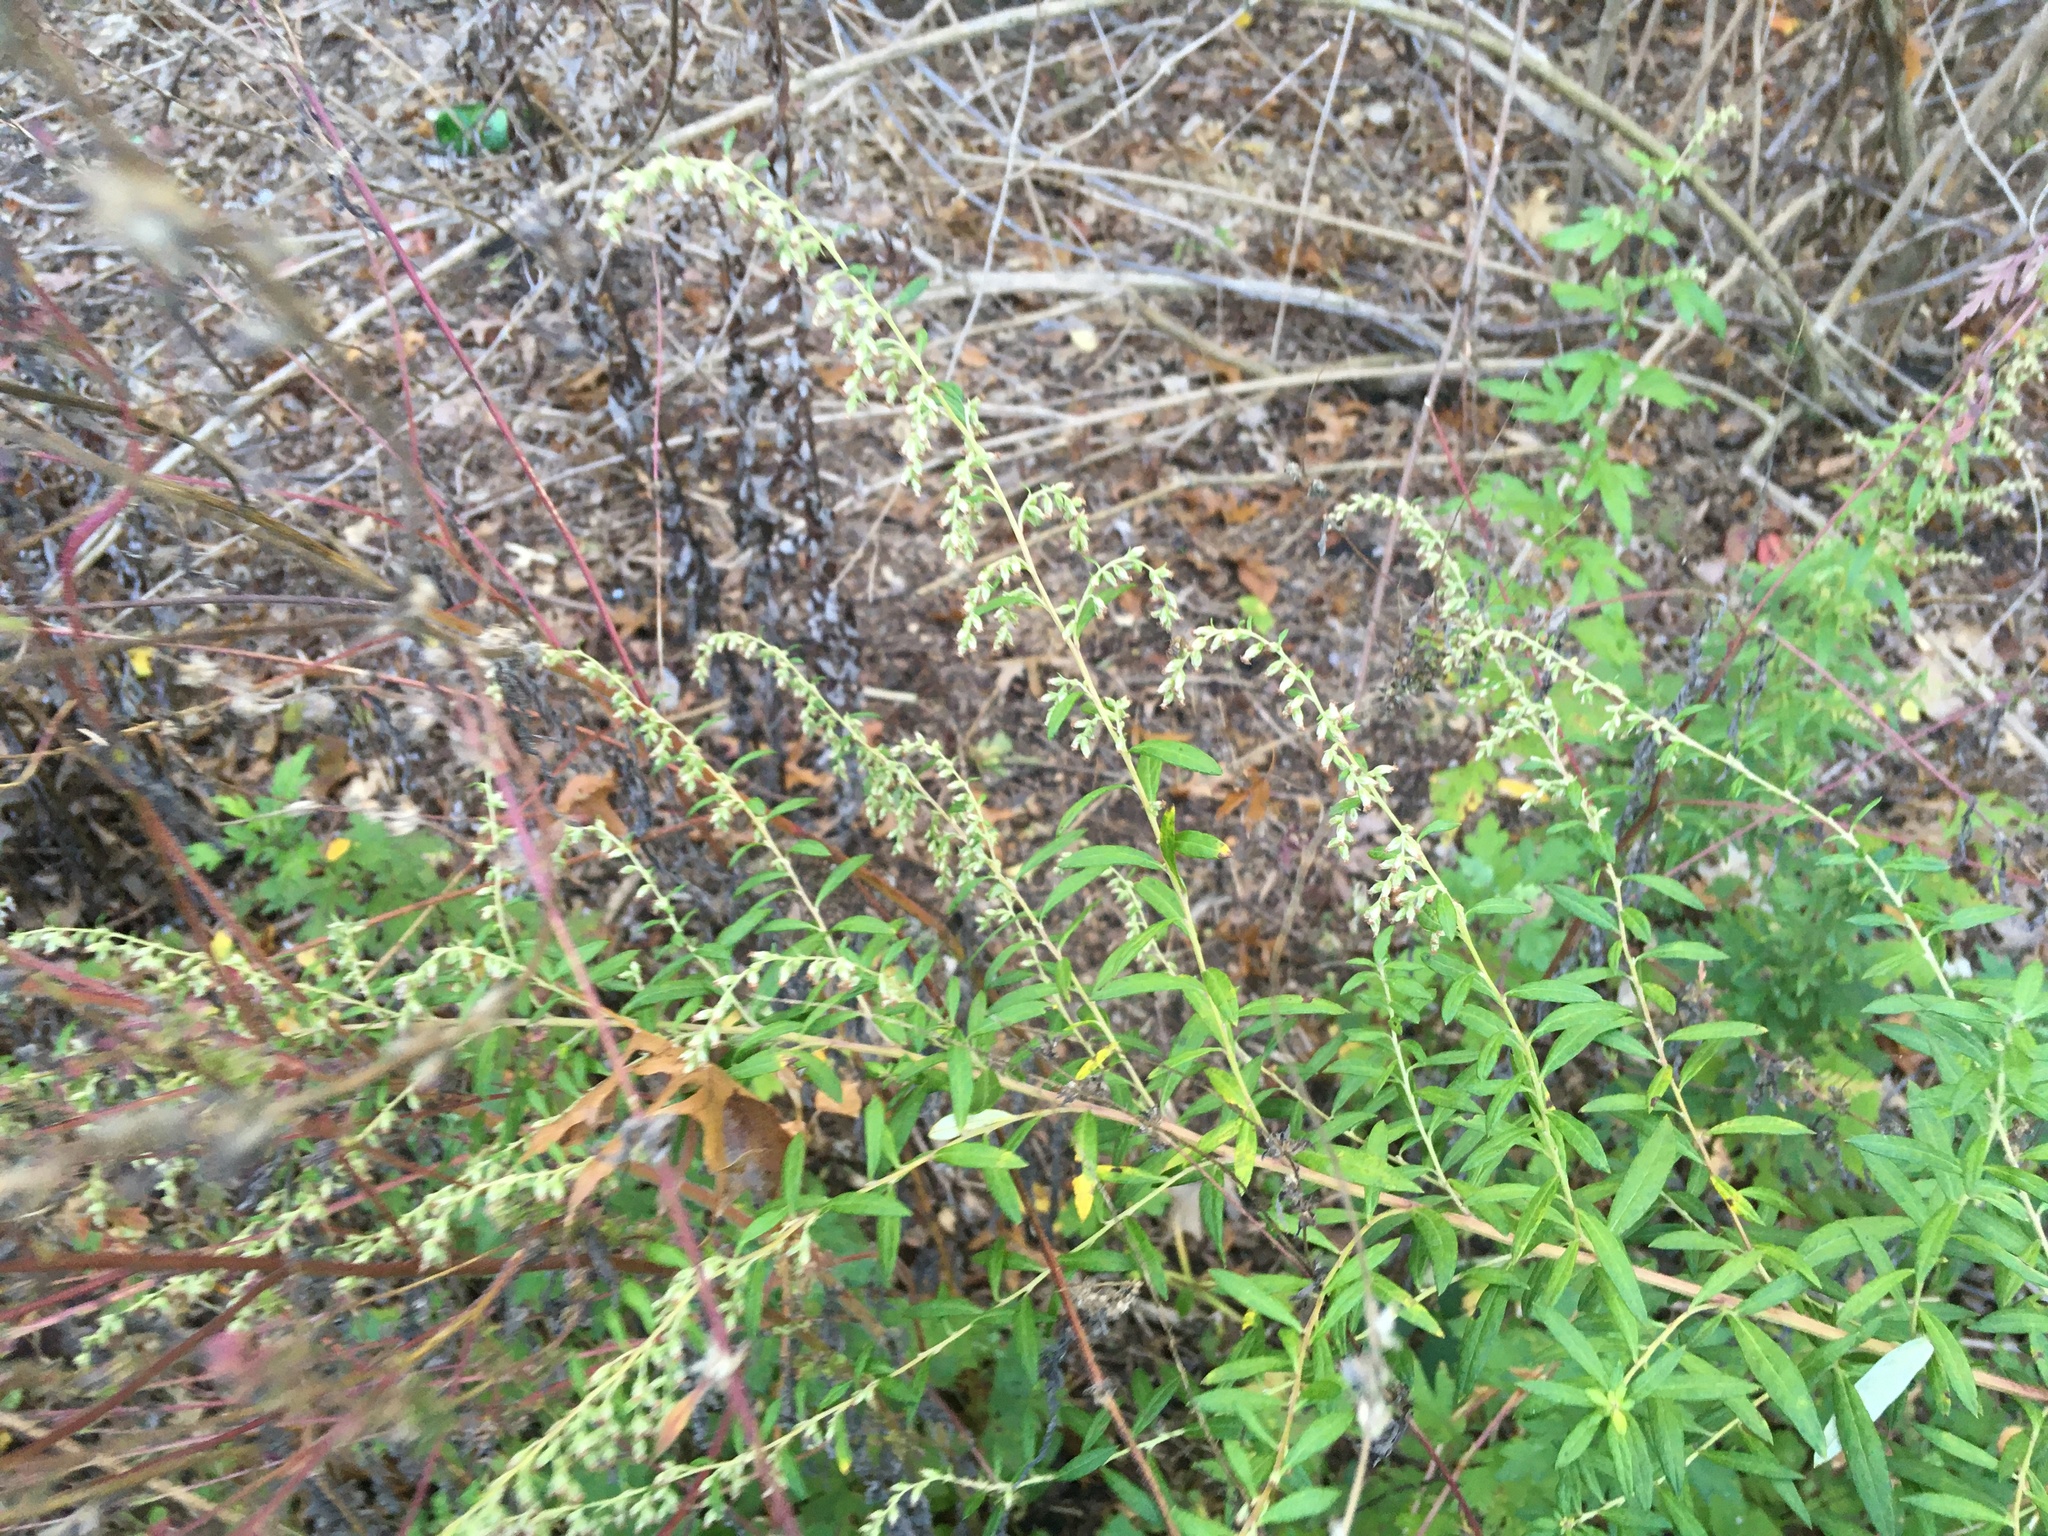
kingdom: Plantae
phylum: Tracheophyta
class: Magnoliopsida
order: Asterales
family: Asteraceae
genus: Artemisia
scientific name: Artemisia vulgaris
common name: Mugwort
